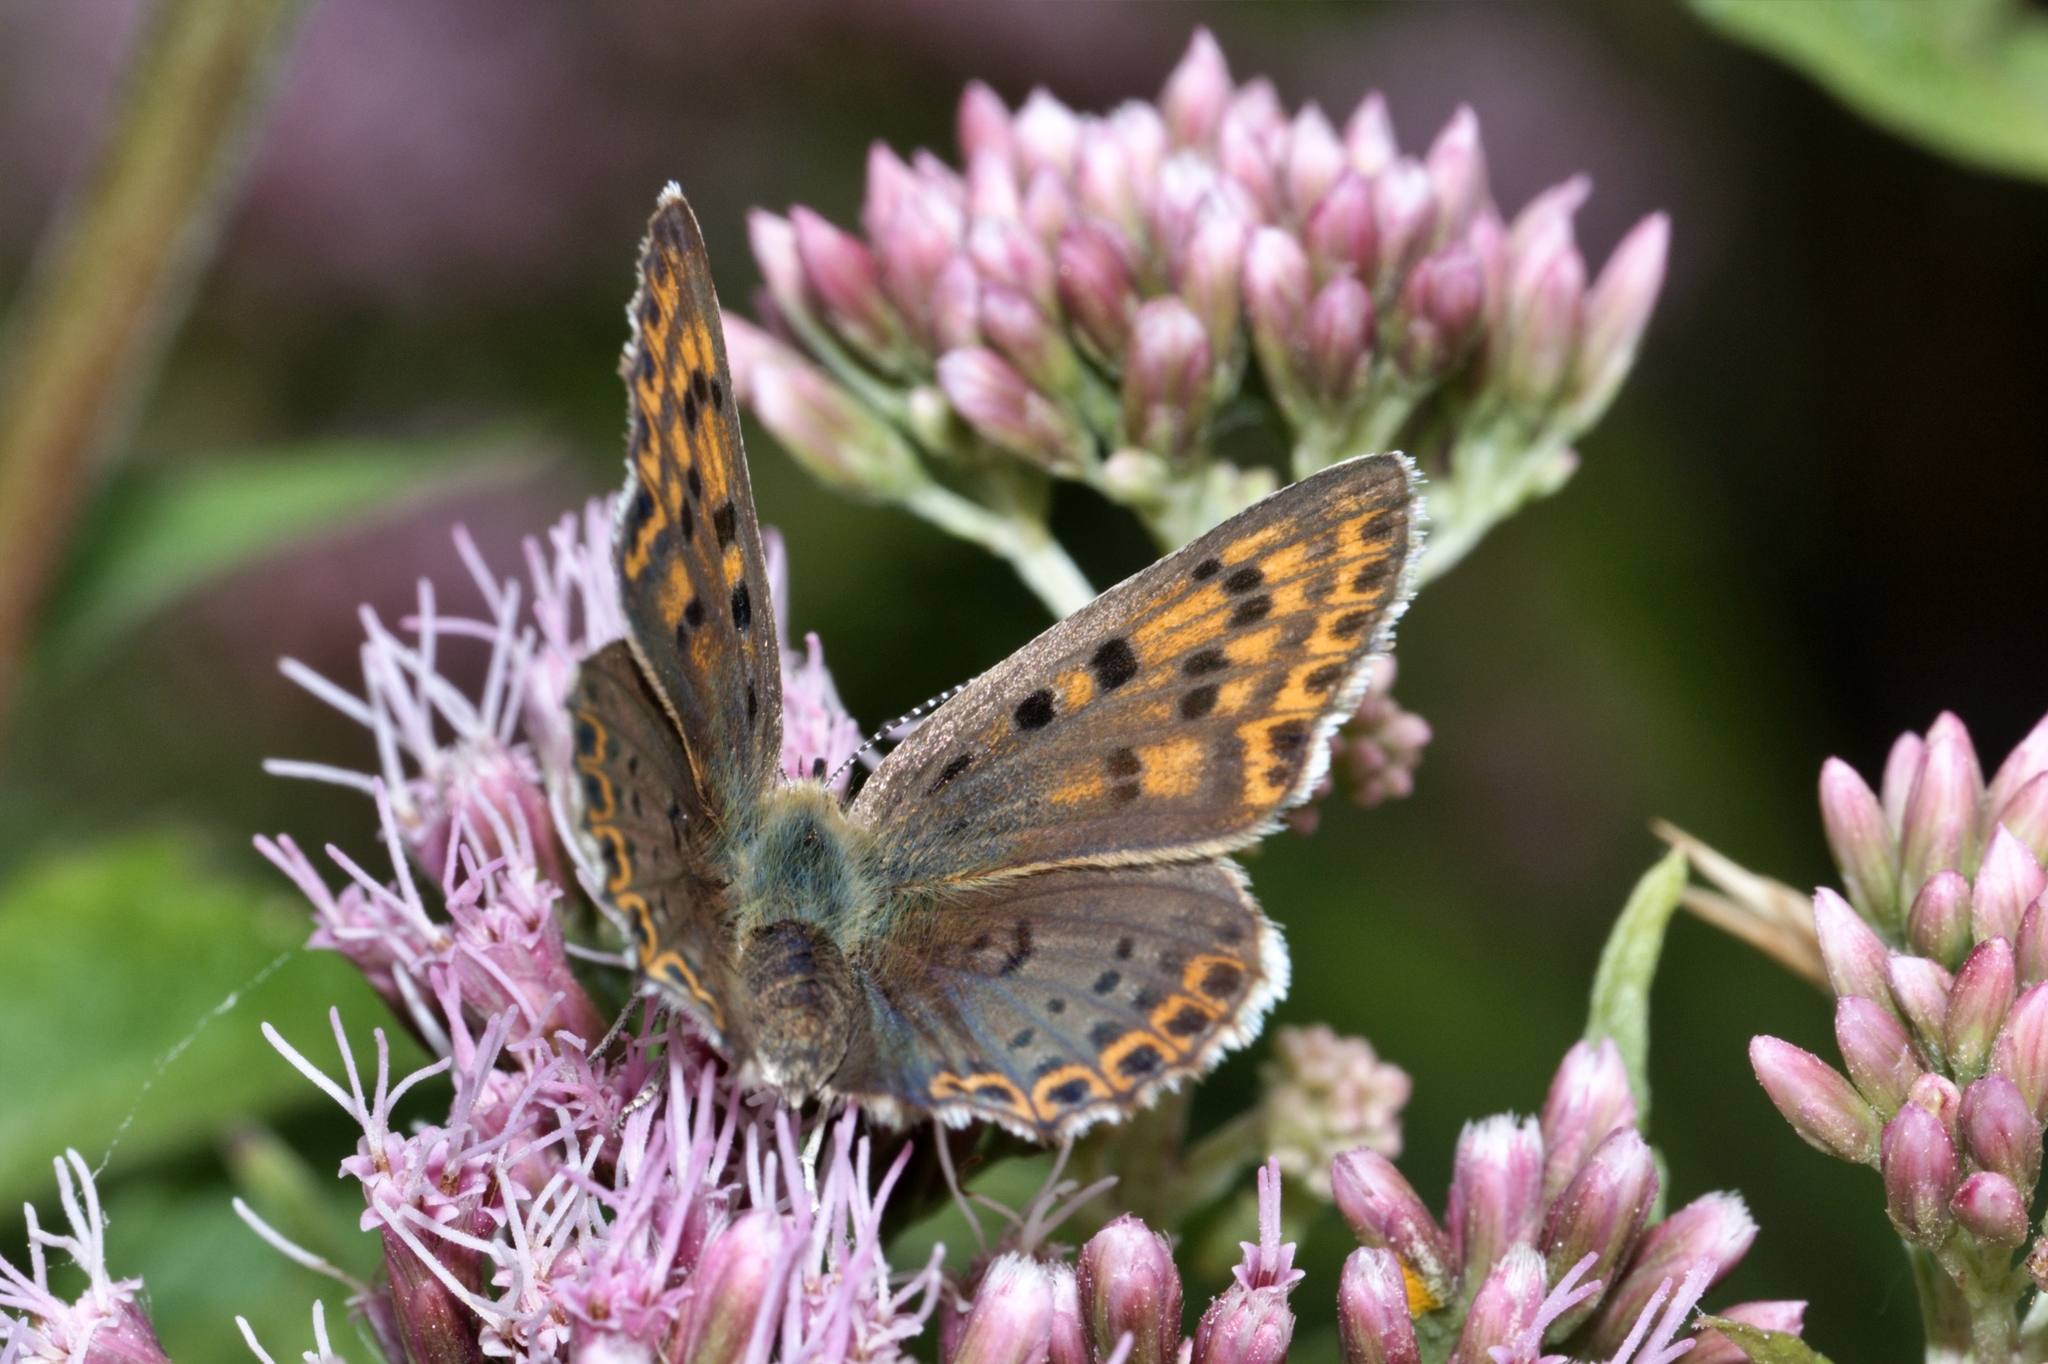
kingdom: Animalia
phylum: Arthropoda
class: Insecta
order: Lepidoptera
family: Lycaenidae
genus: Loweia
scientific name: Loweia tityrus
